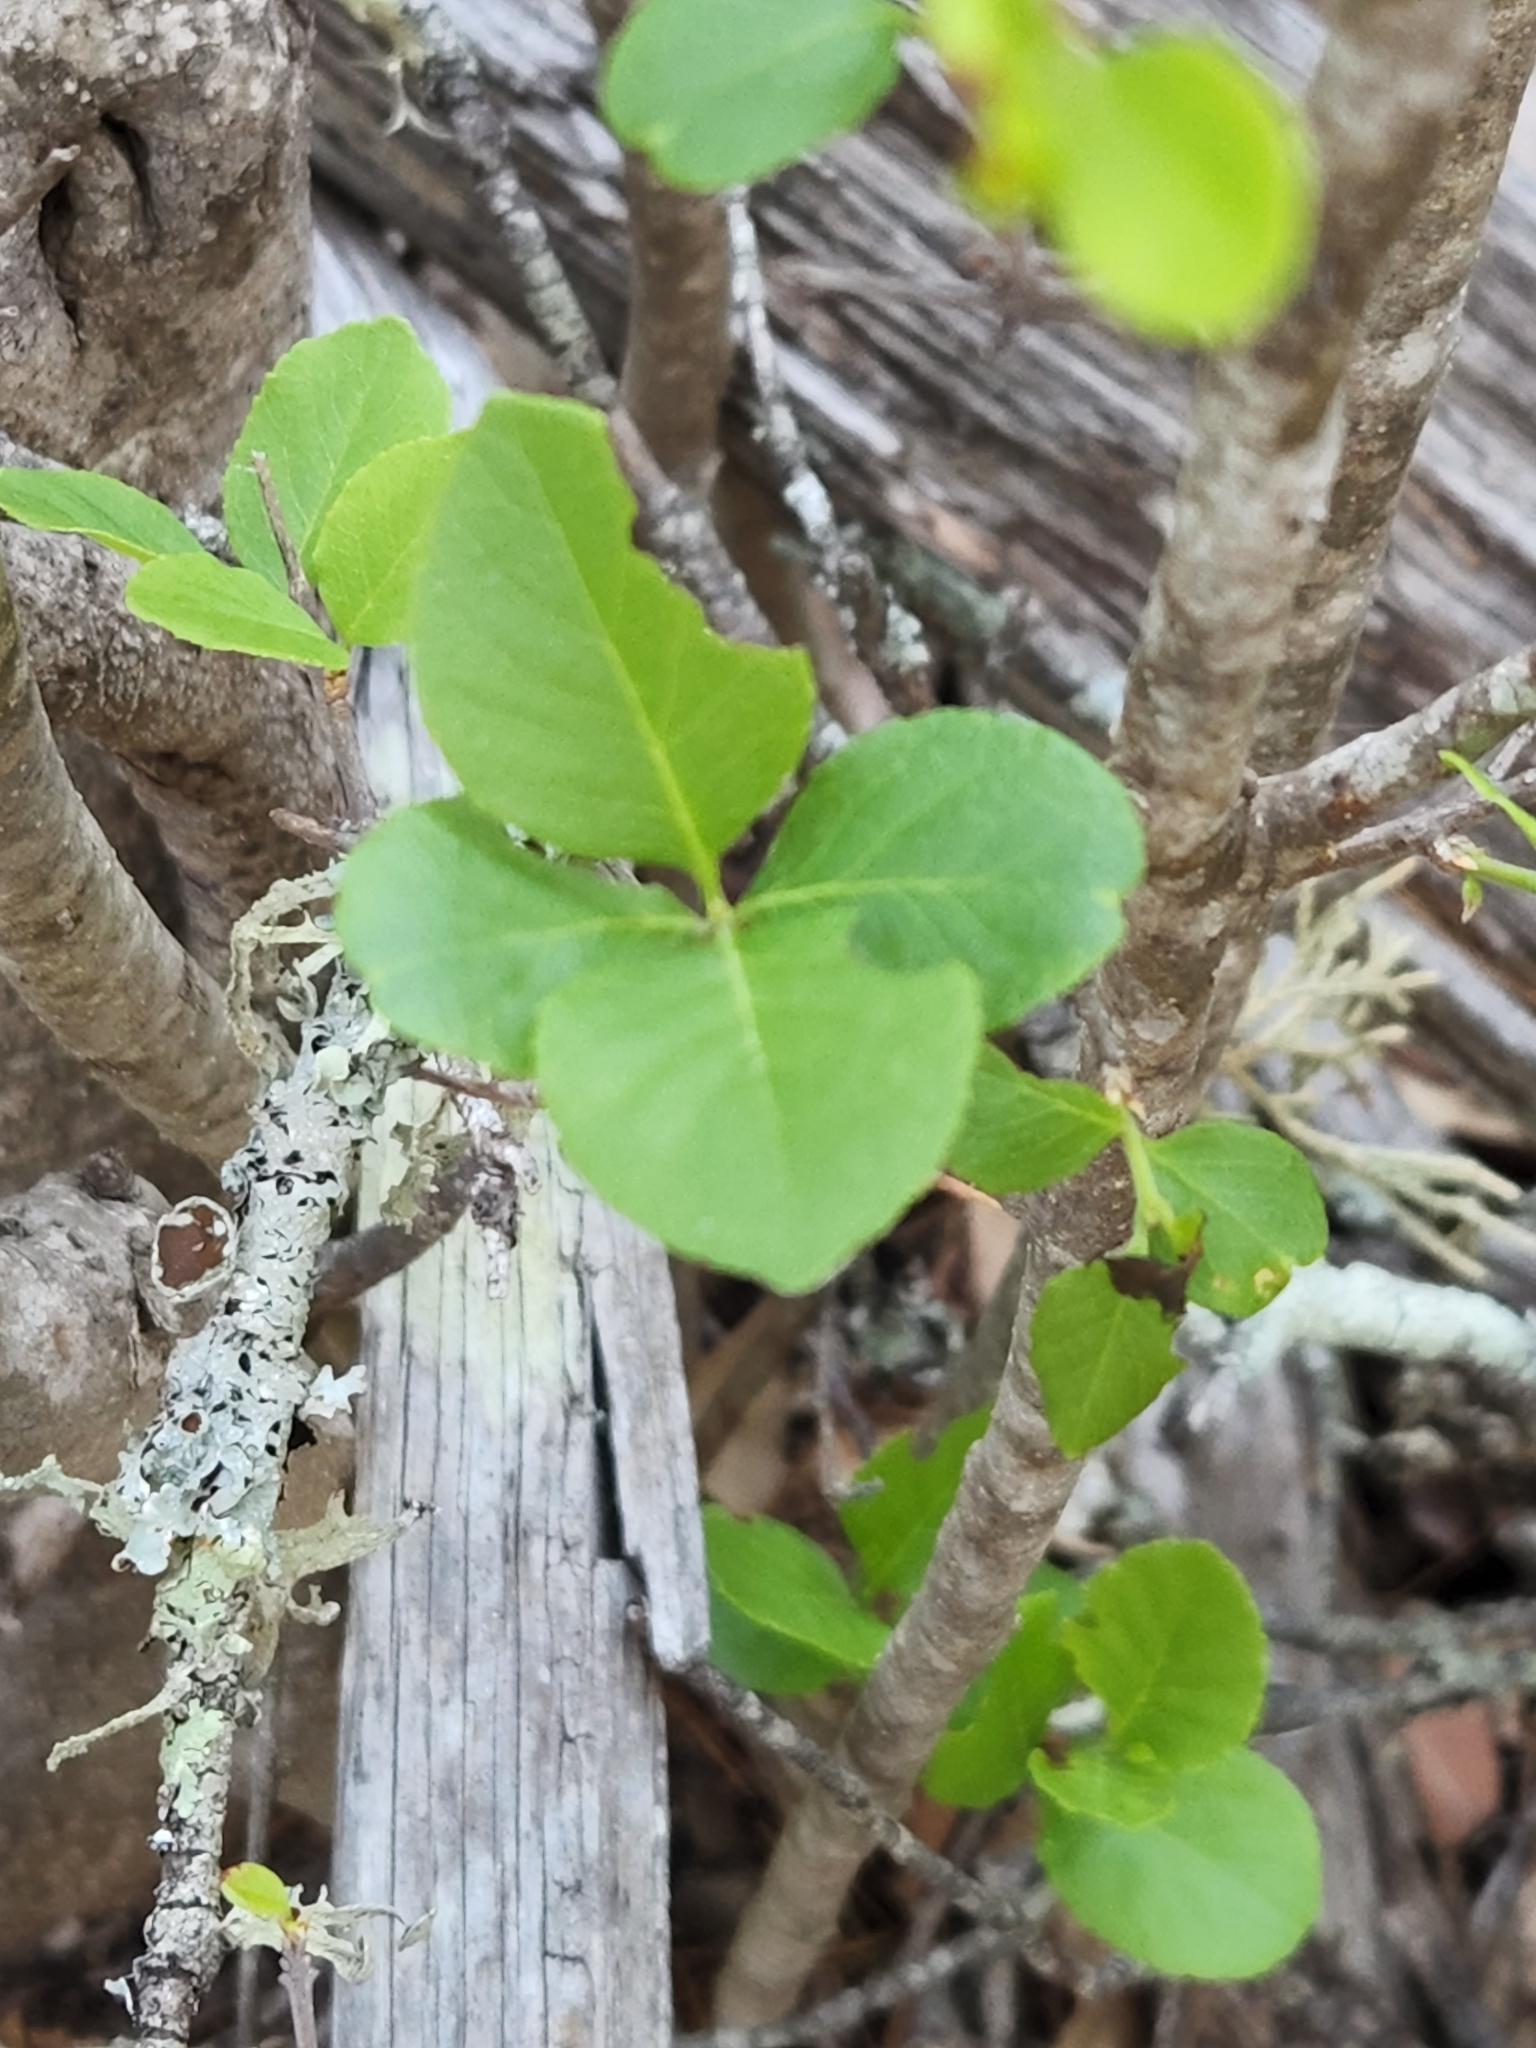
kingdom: Plantae
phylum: Tracheophyta
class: Magnoliopsida
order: Lamiales
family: Oleaceae
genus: Forestiera
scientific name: Forestiera reticulata
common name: Netleaf swamp-privet
